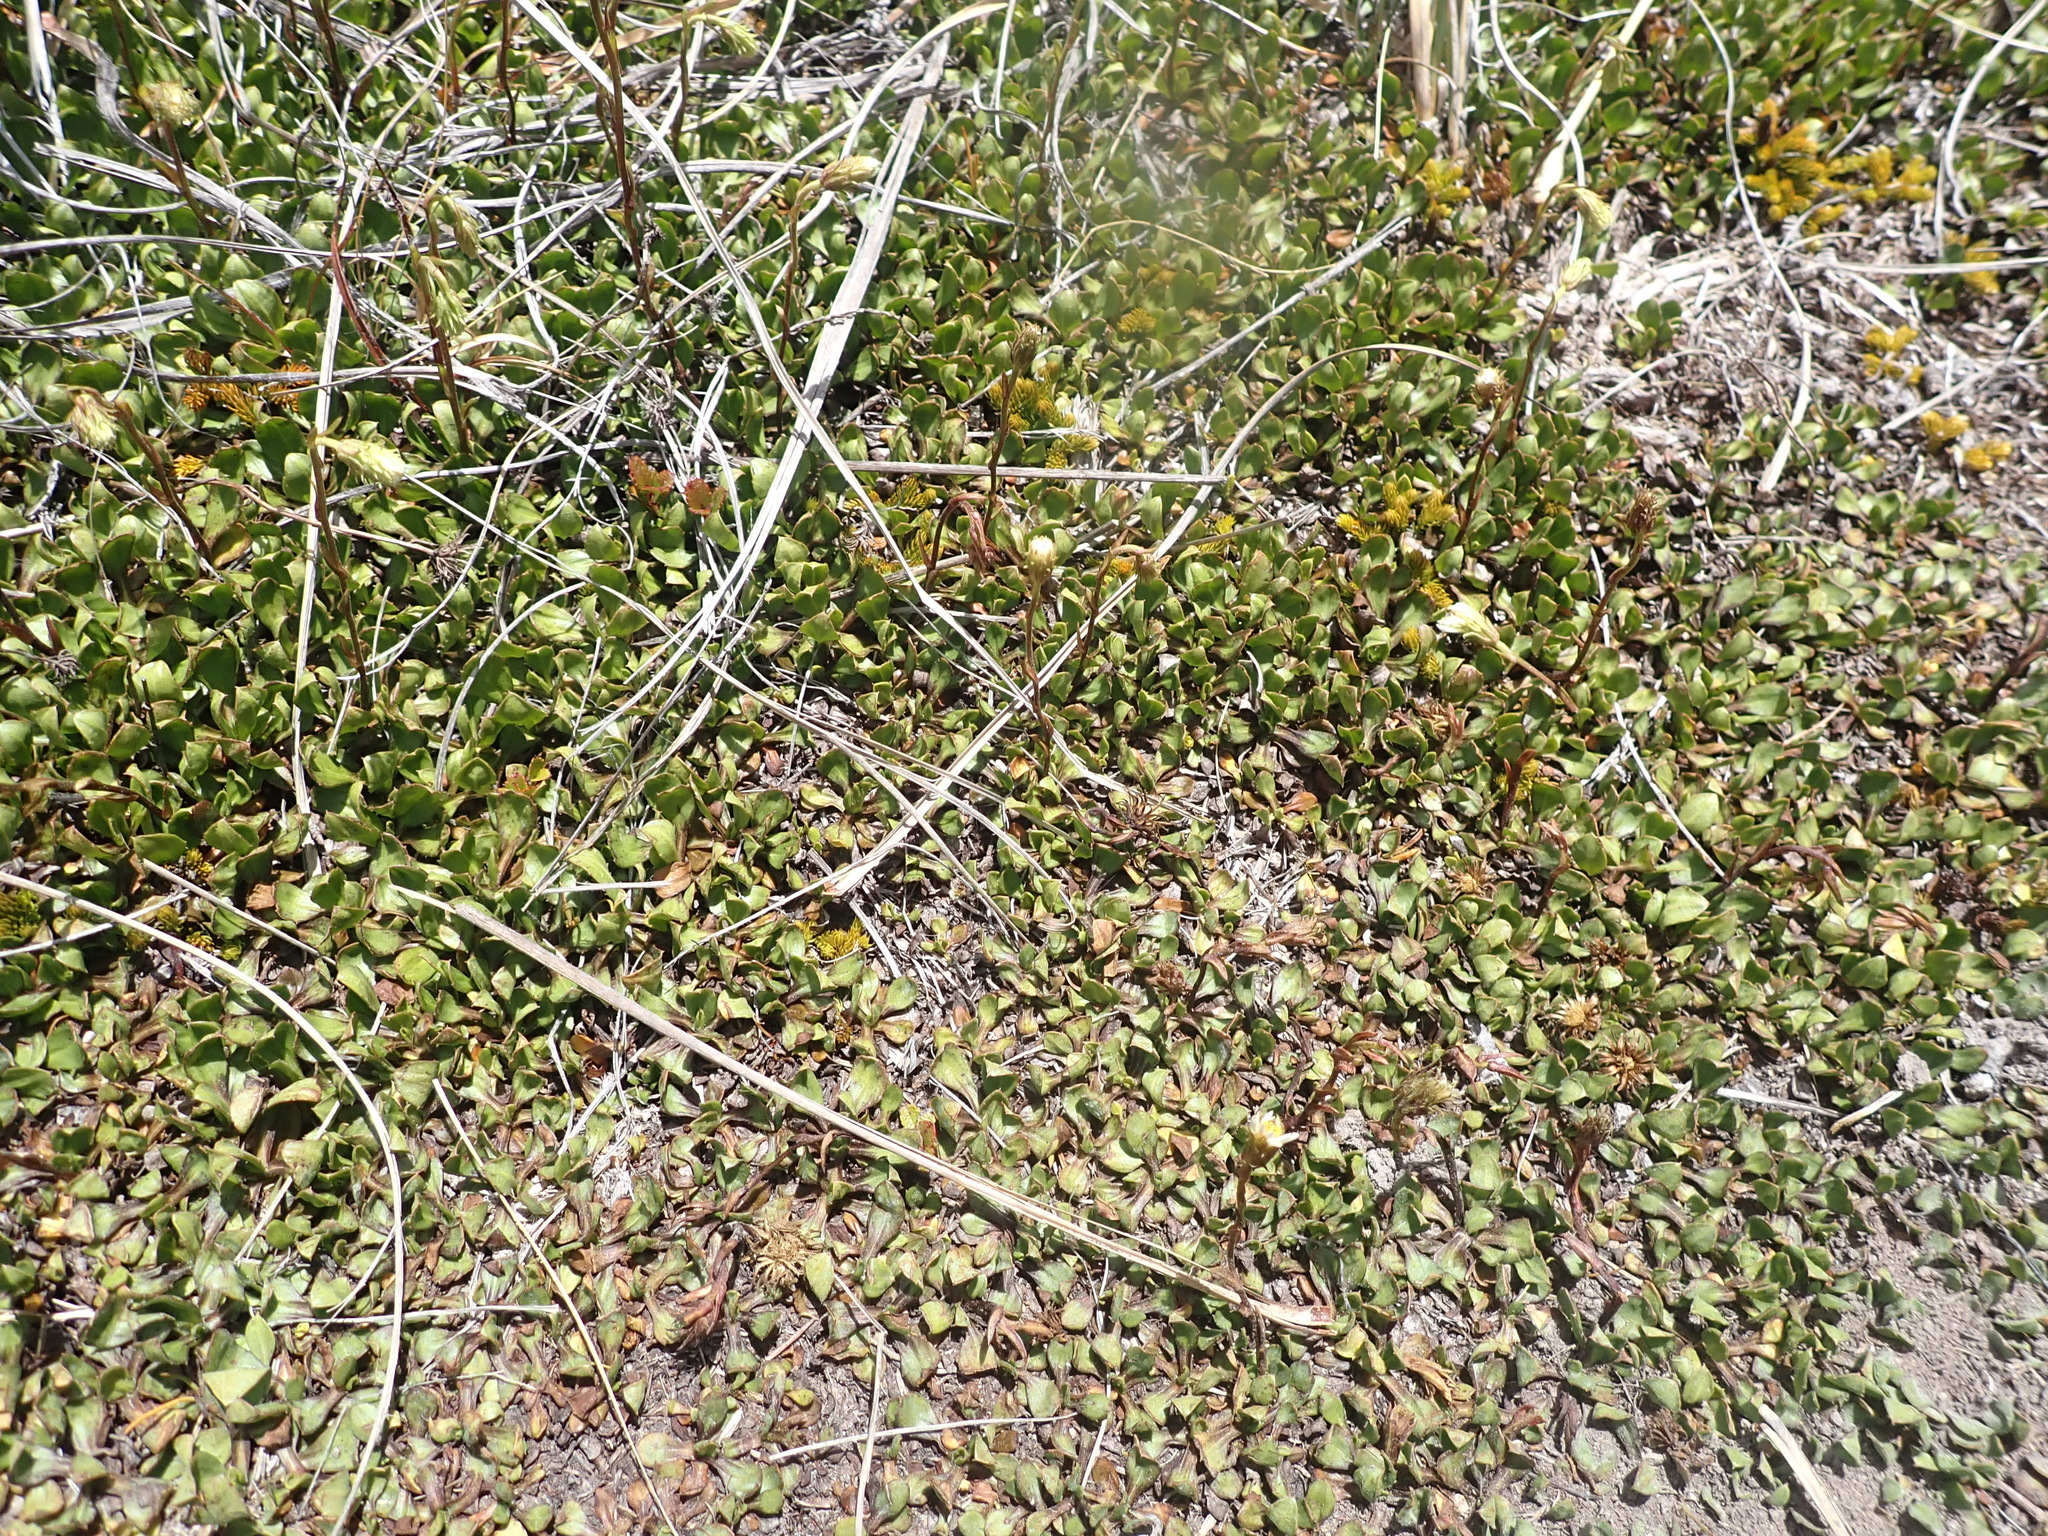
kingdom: Plantae
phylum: Tracheophyta
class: Magnoliopsida
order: Asterales
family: Asteraceae
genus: Celmisia
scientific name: Celmisia glandulosa
